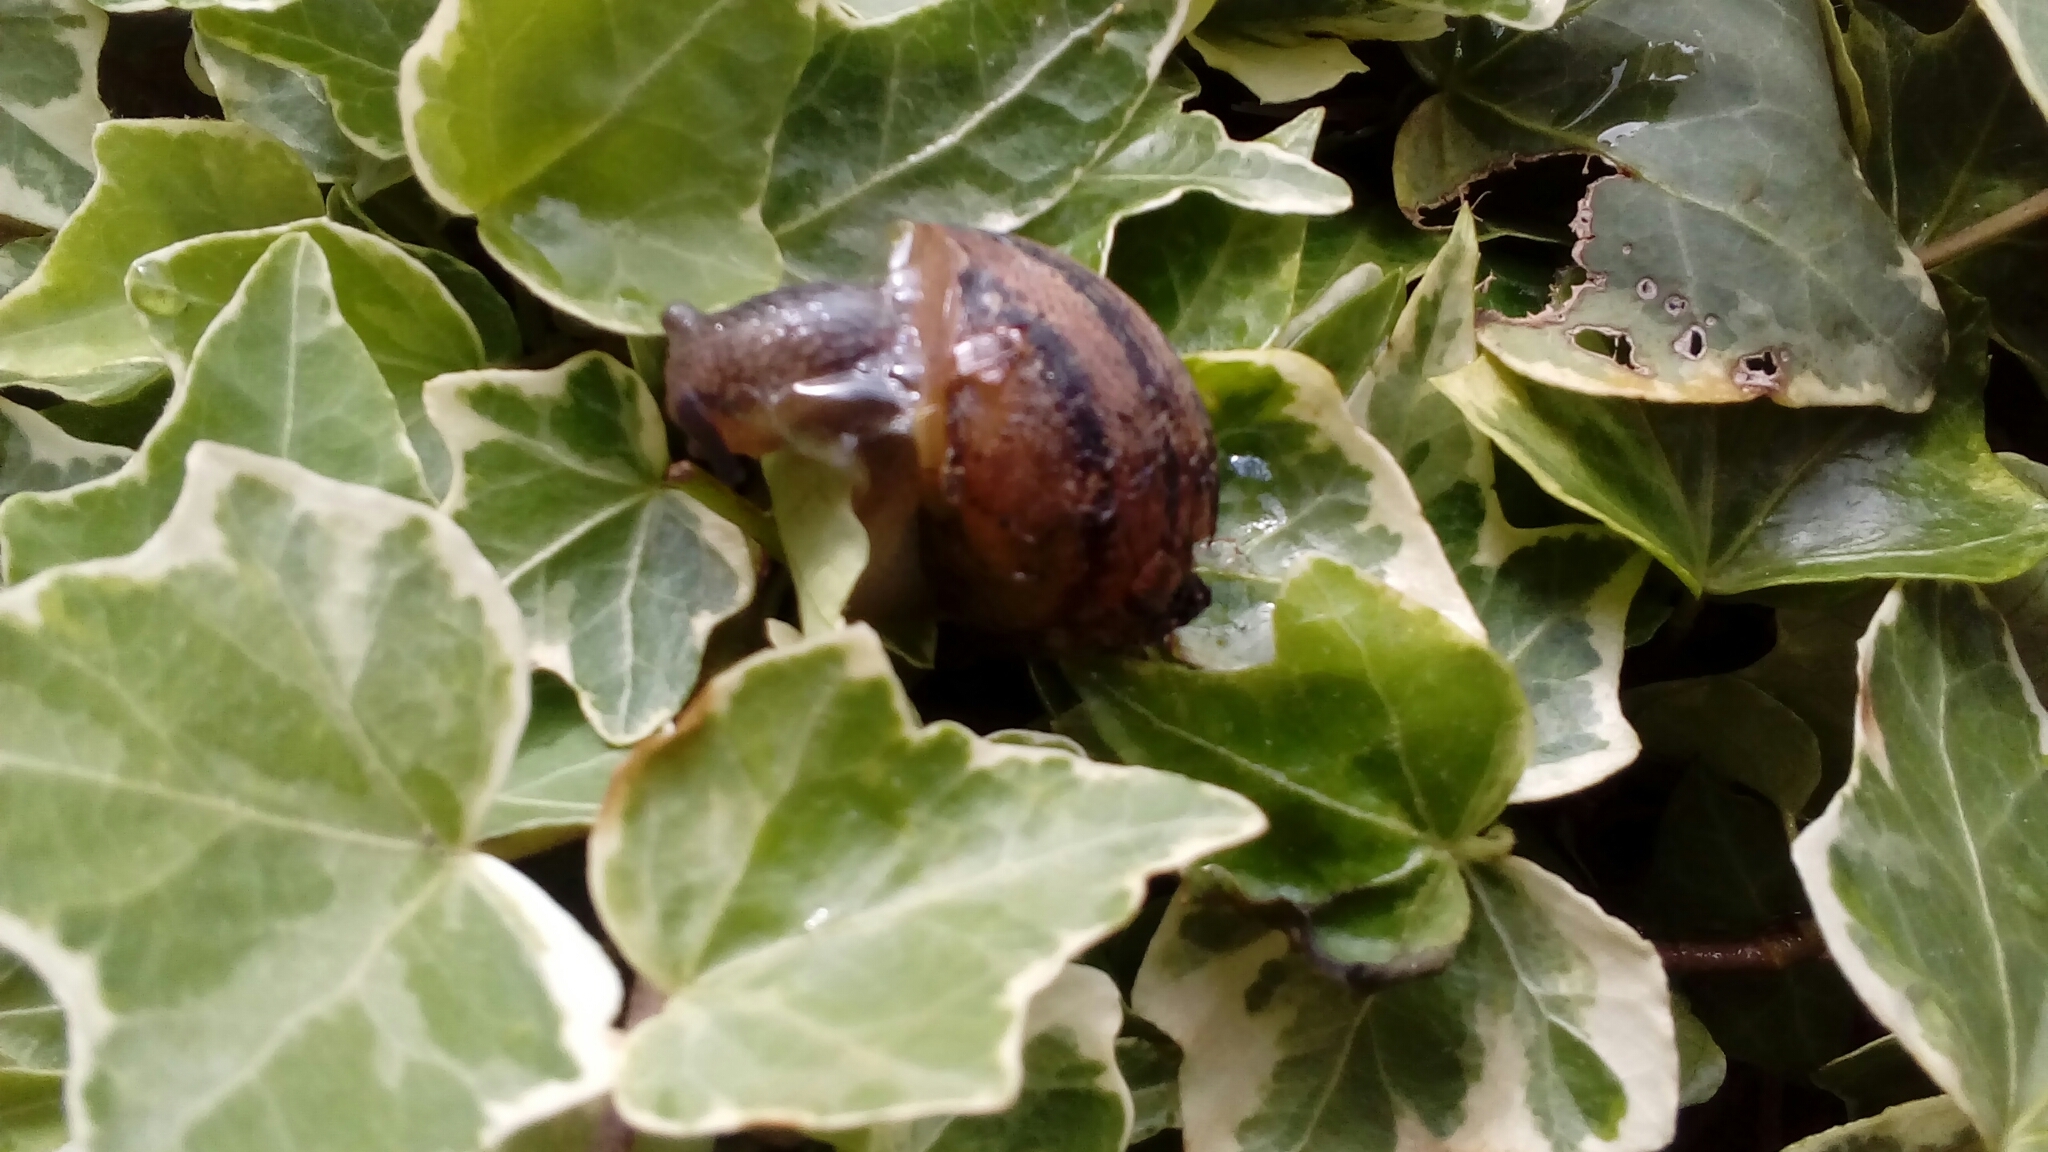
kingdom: Animalia
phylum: Mollusca
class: Gastropoda
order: Stylommatophora
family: Helicidae
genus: Cornu
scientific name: Cornu aspersum
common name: Brown garden snail
